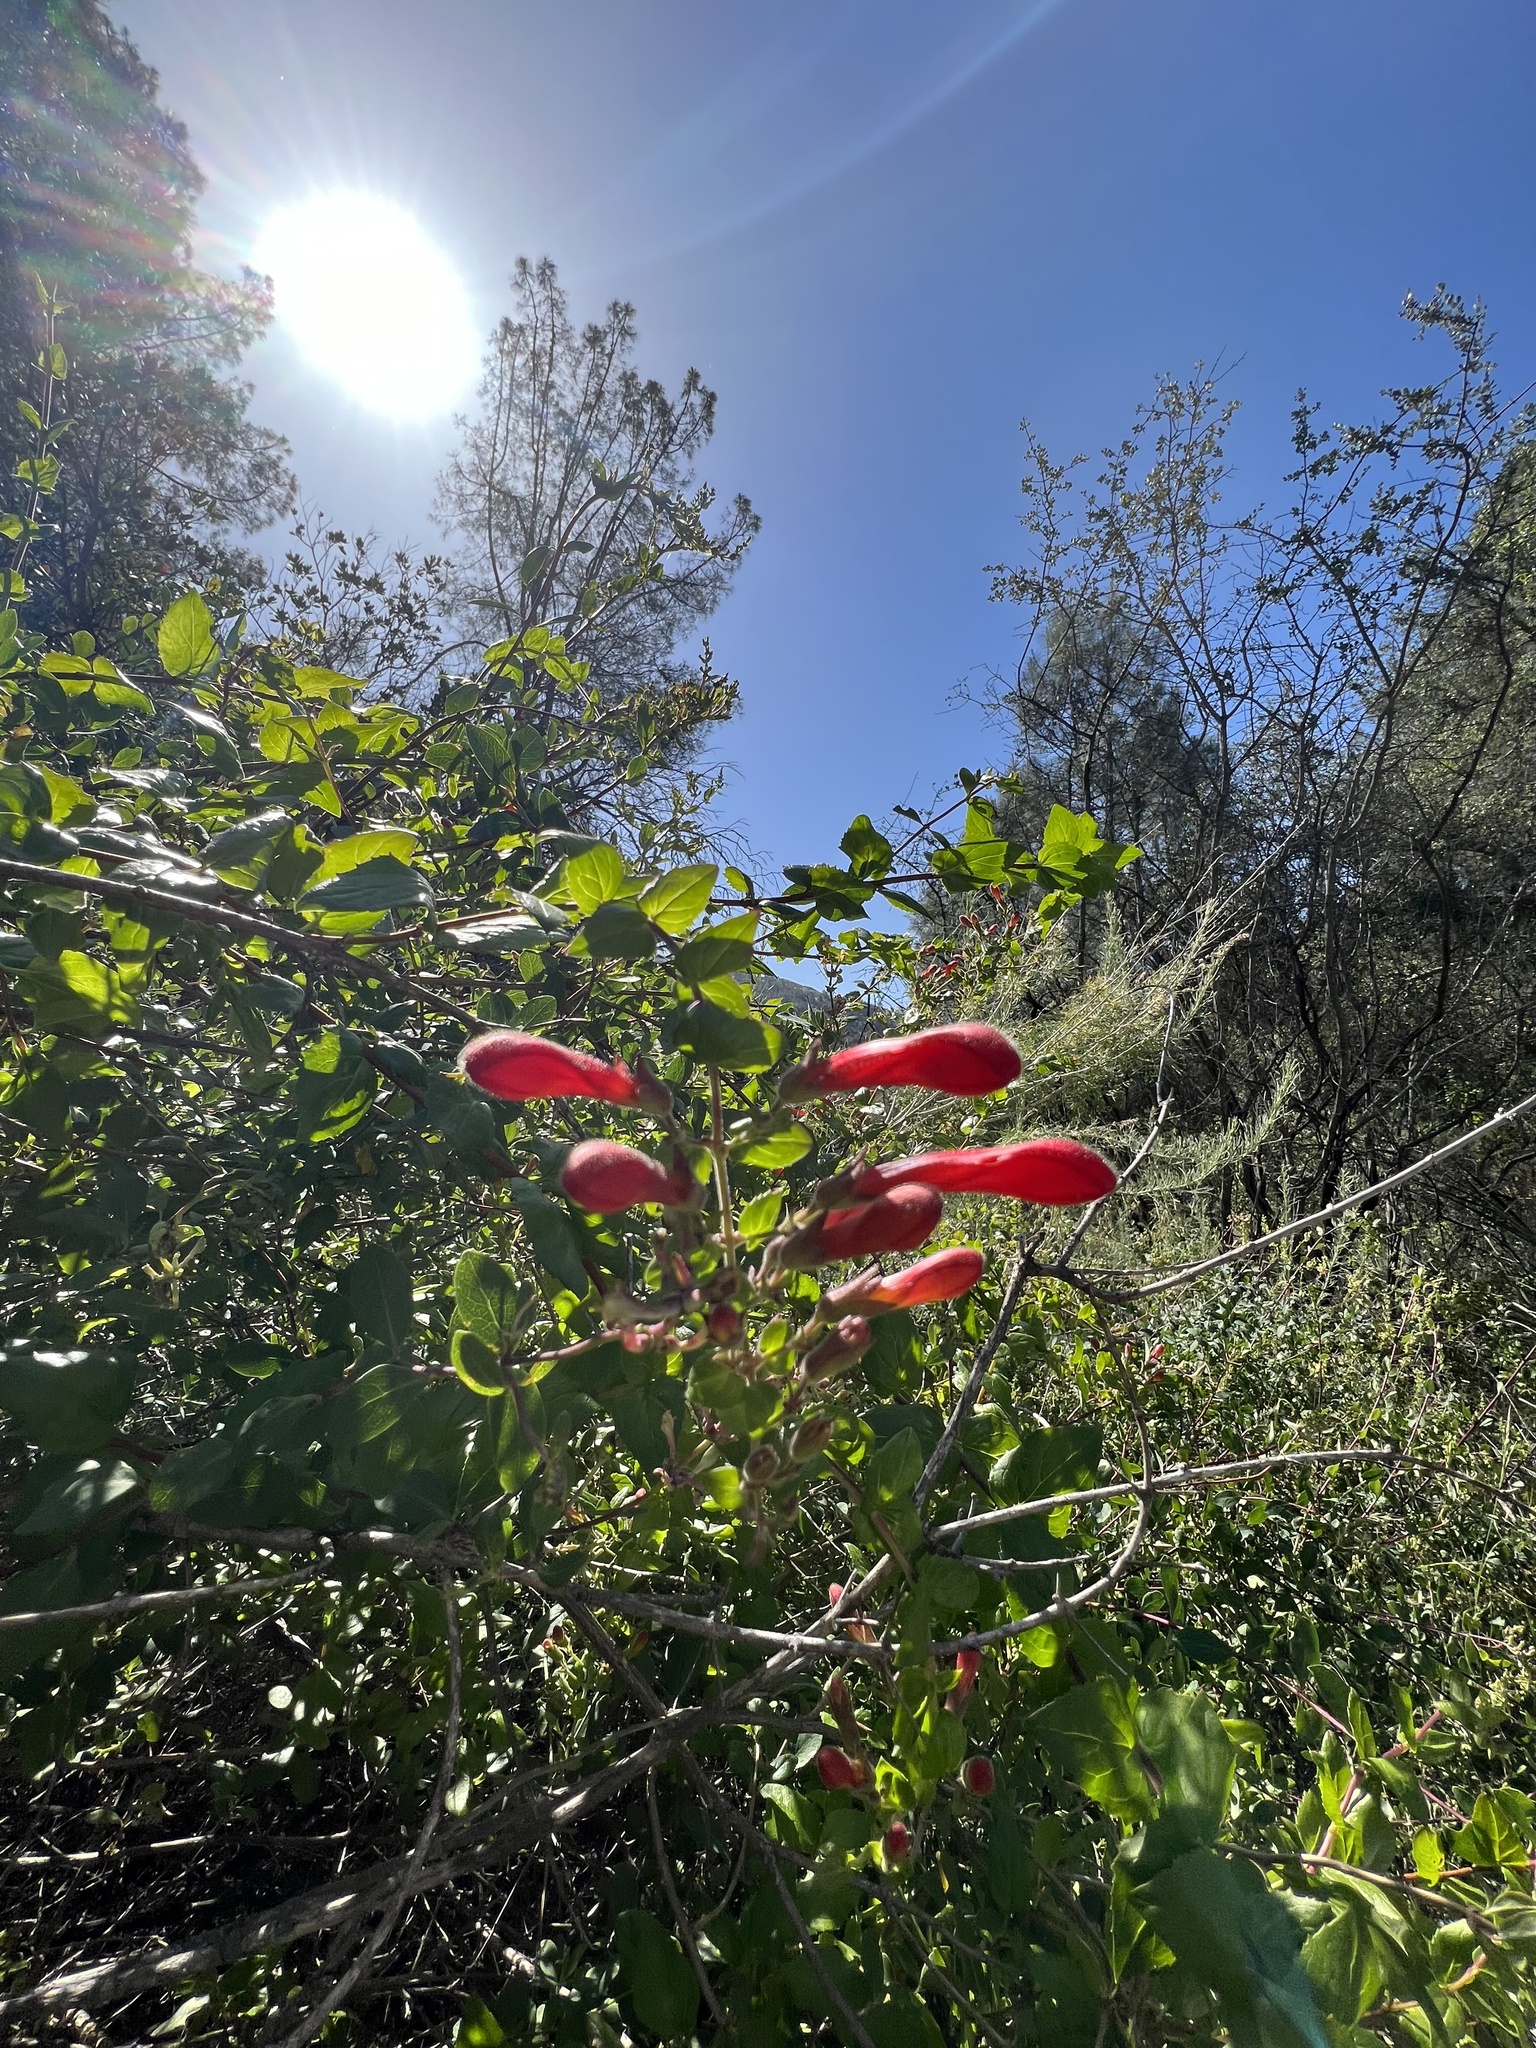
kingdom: Plantae
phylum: Tracheophyta
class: Magnoliopsida
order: Lamiales
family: Plantaginaceae
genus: Keckiella
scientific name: Keckiella cordifolia
